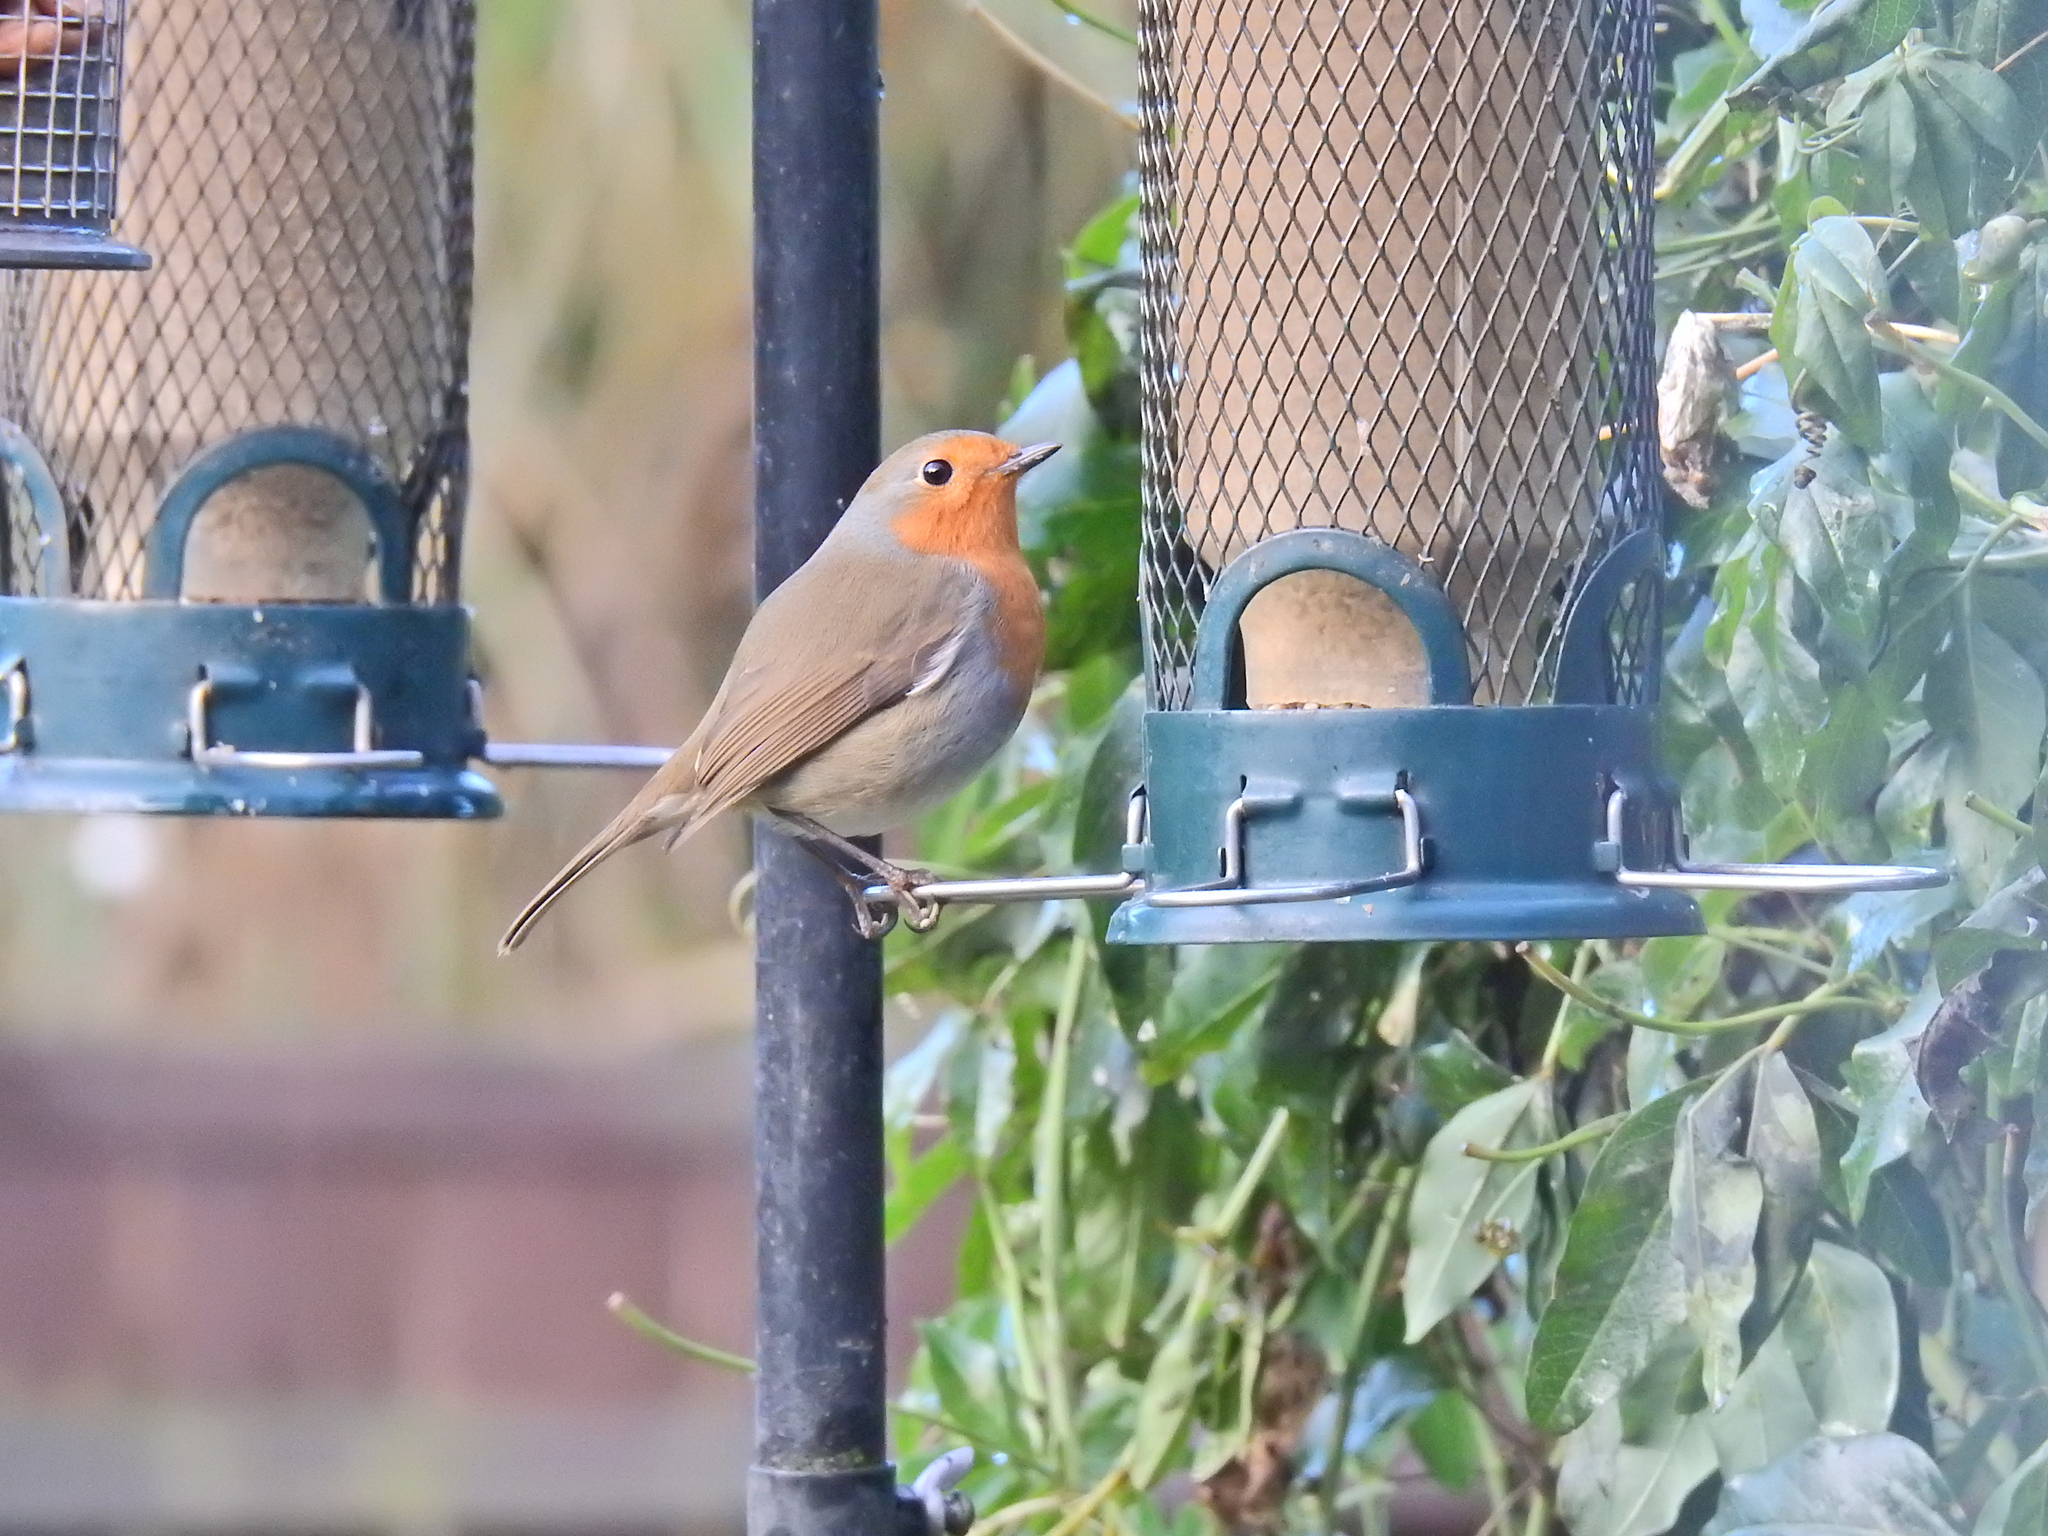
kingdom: Animalia
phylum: Chordata
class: Aves
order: Passeriformes
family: Muscicapidae
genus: Erithacus
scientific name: Erithacus rubecula
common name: European robin
